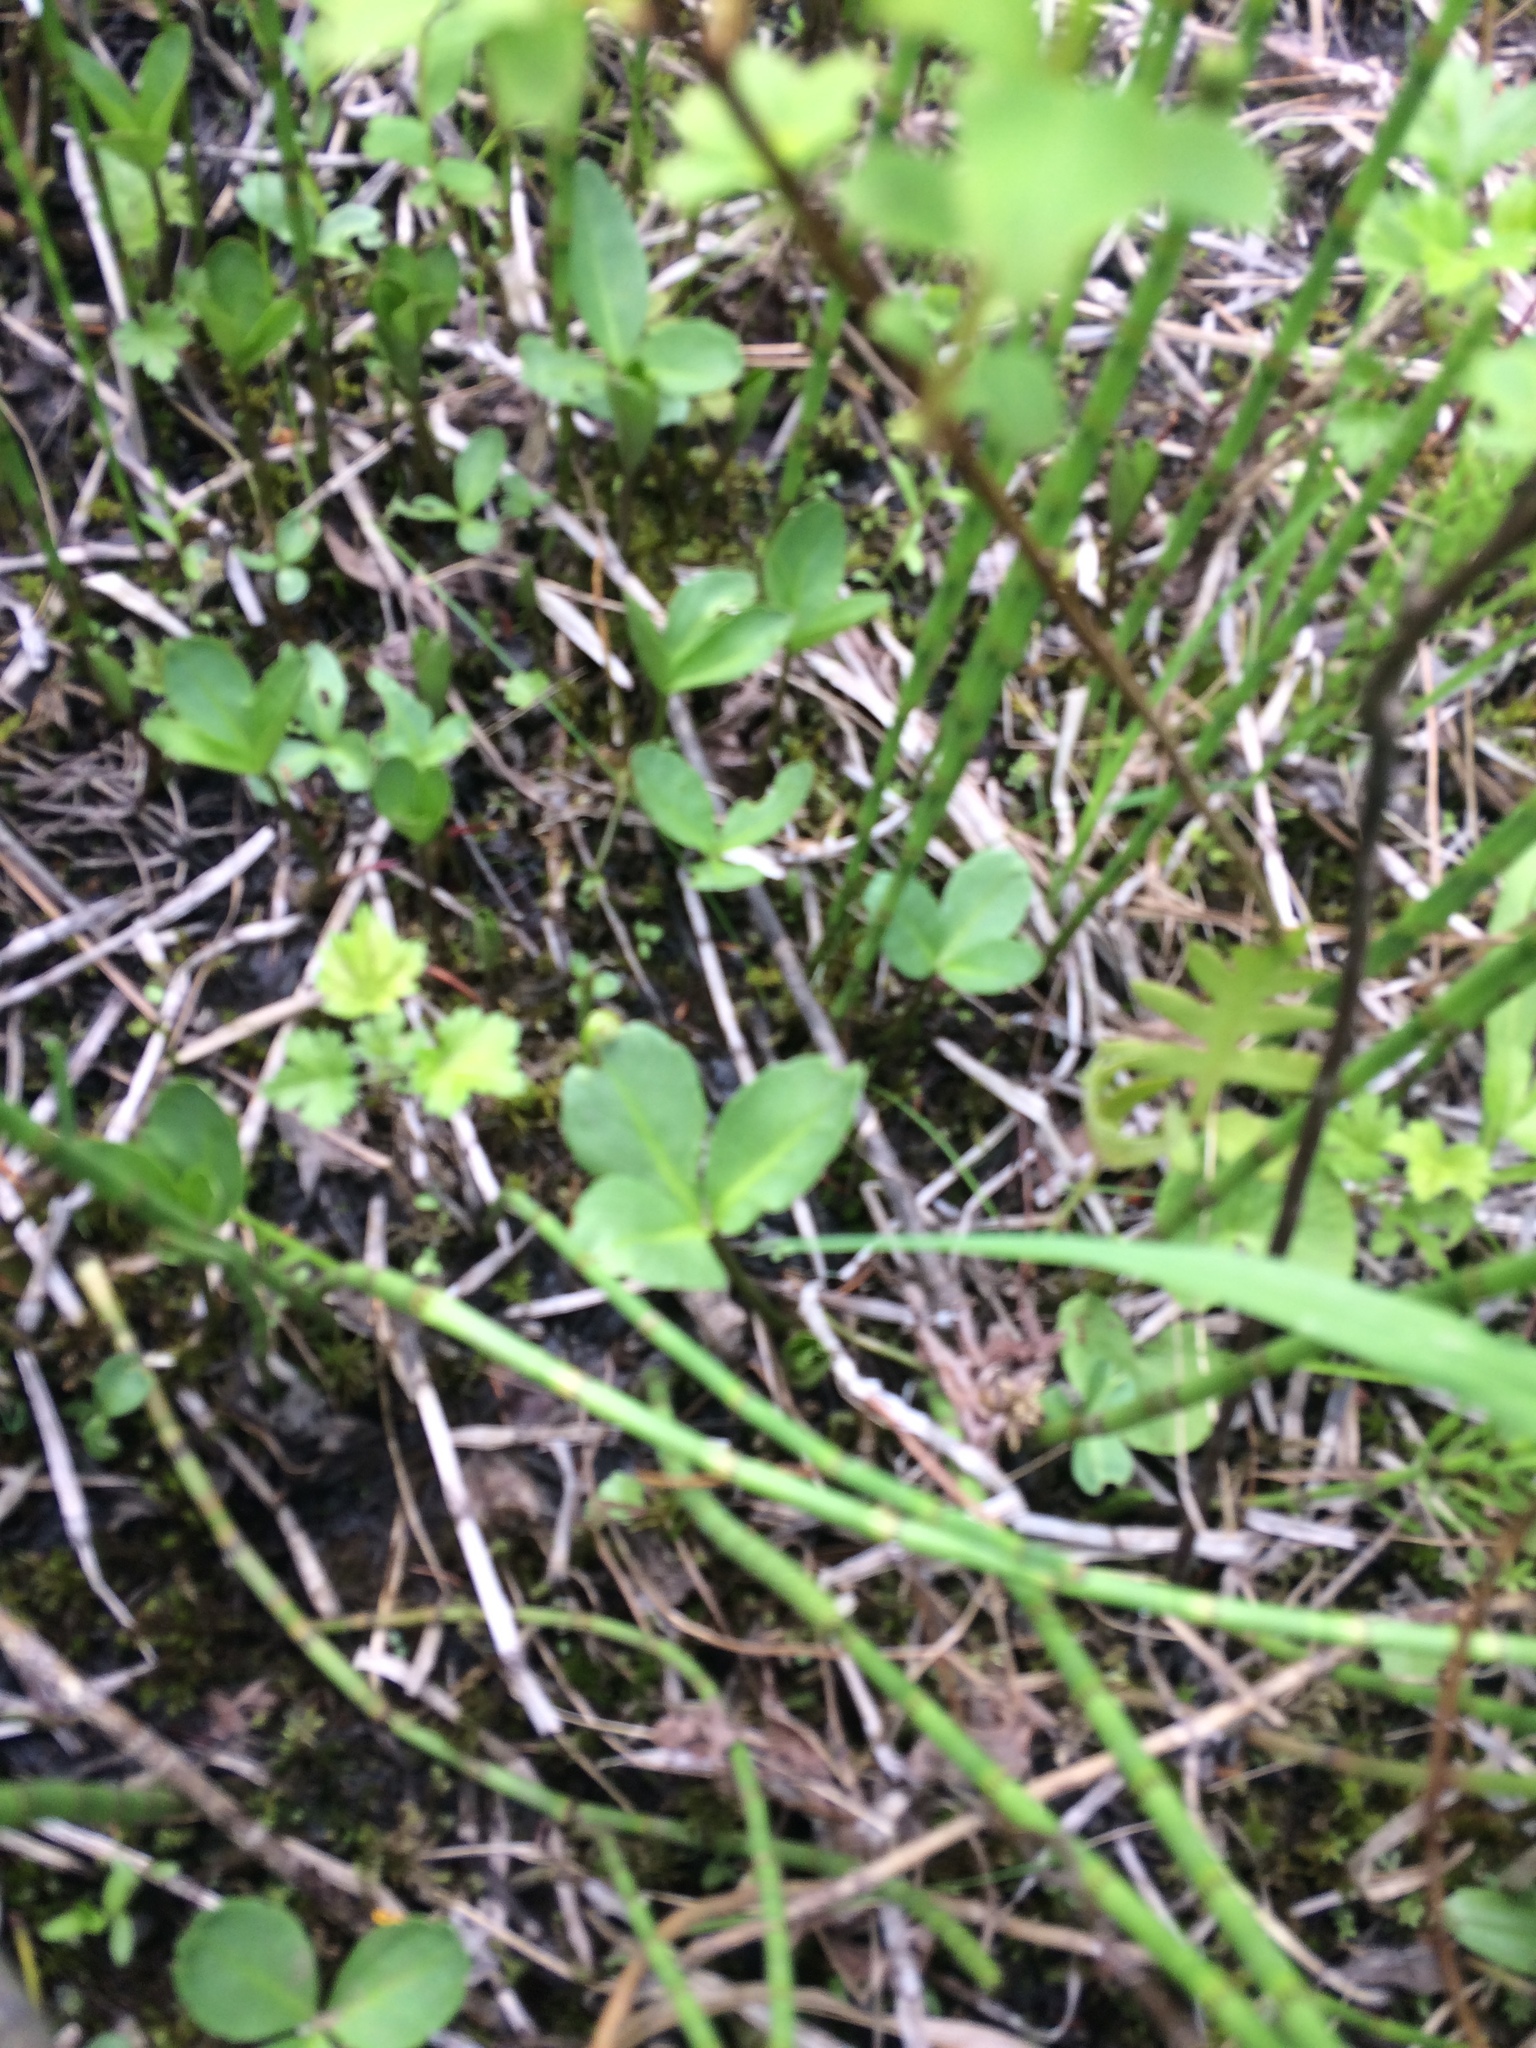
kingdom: Plantae
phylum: Tracheophyta
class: Magnoliopsida
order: Asterales
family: Menyanthaceae
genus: Menyanthes
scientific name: Menyanthes trifoliata
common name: Bogbean
